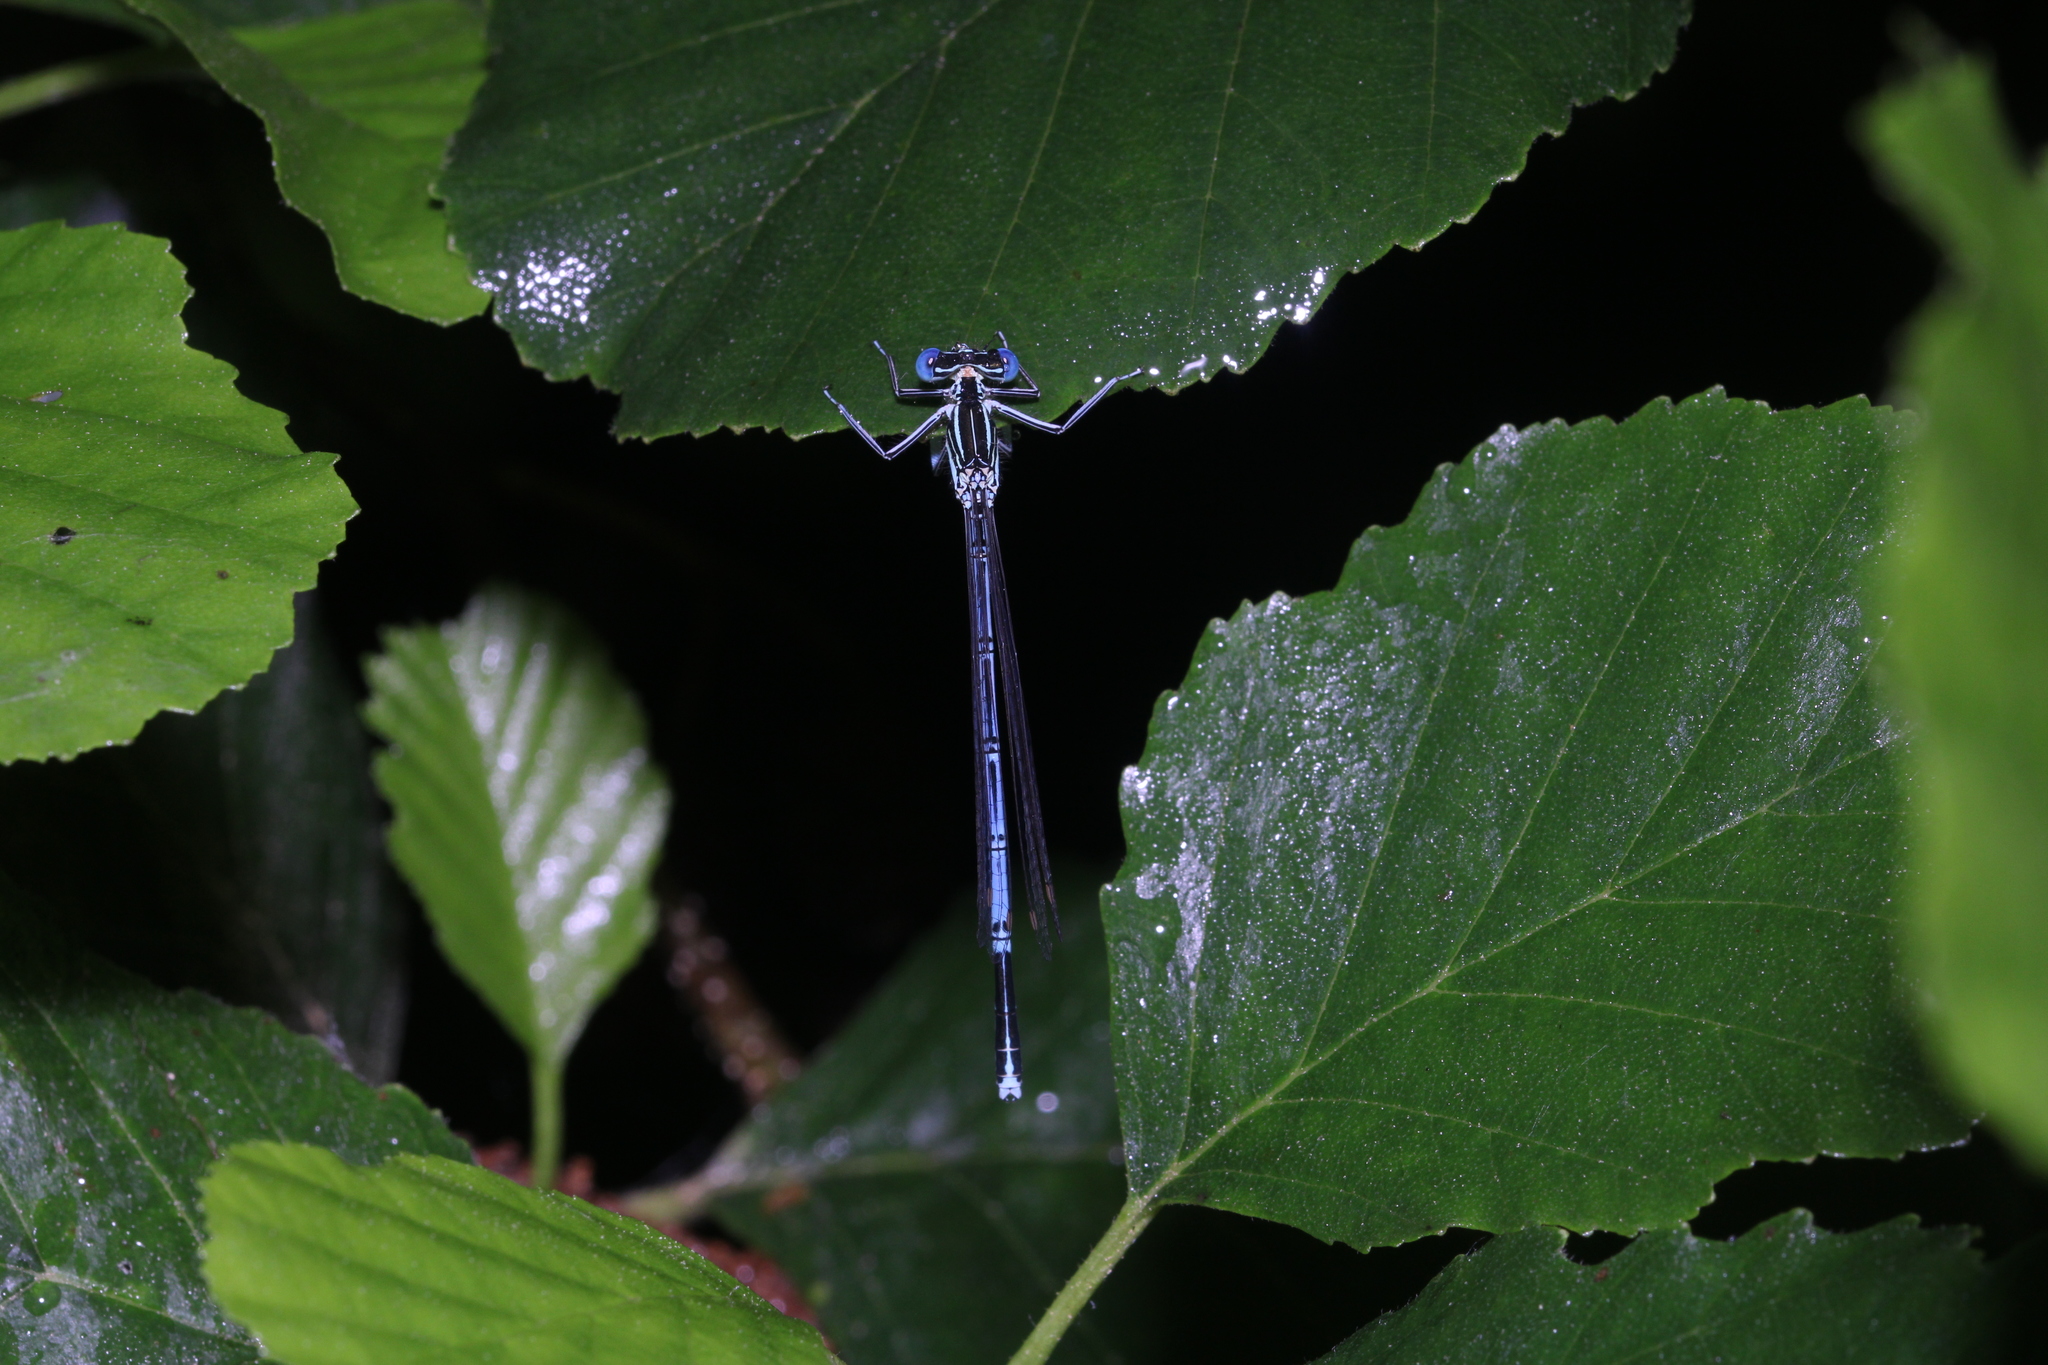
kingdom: Animalia
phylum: Arthropoda
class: Insecta
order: Odonata
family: Platycnemididae
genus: Platycnemis
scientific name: Platycnemis pennipes
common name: White-legged damselfly
